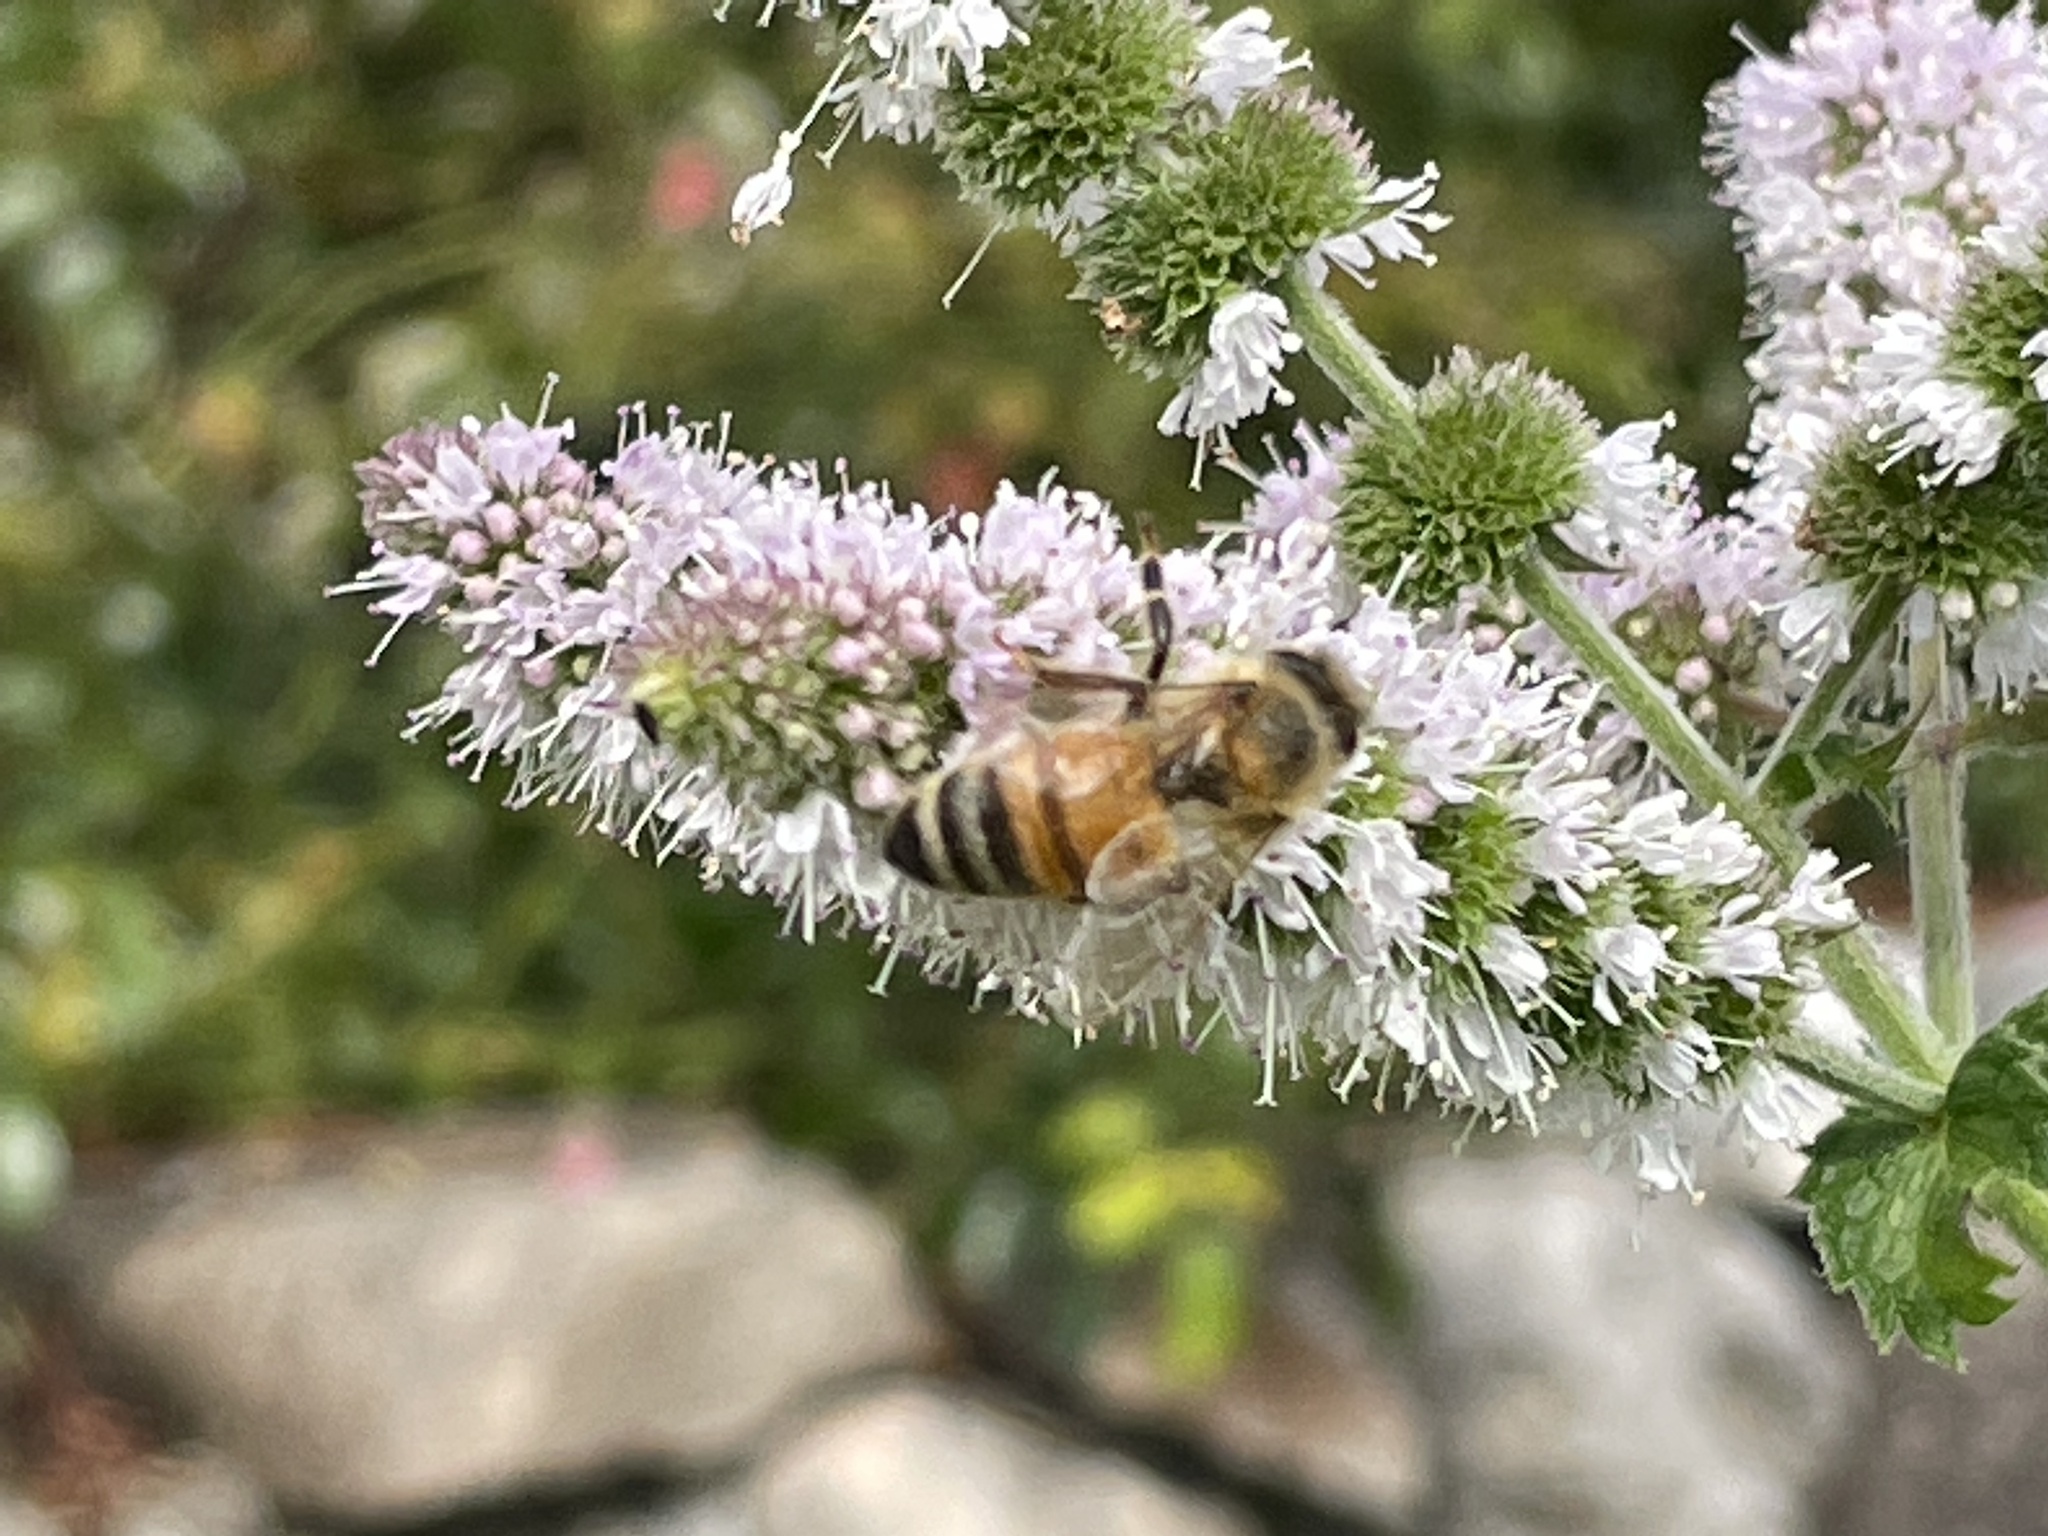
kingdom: Animalia
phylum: Arthropoda
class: Insecta
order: Hymenoptera
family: Apidae
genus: Apis
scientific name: Apis mellifera
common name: Honey bee
